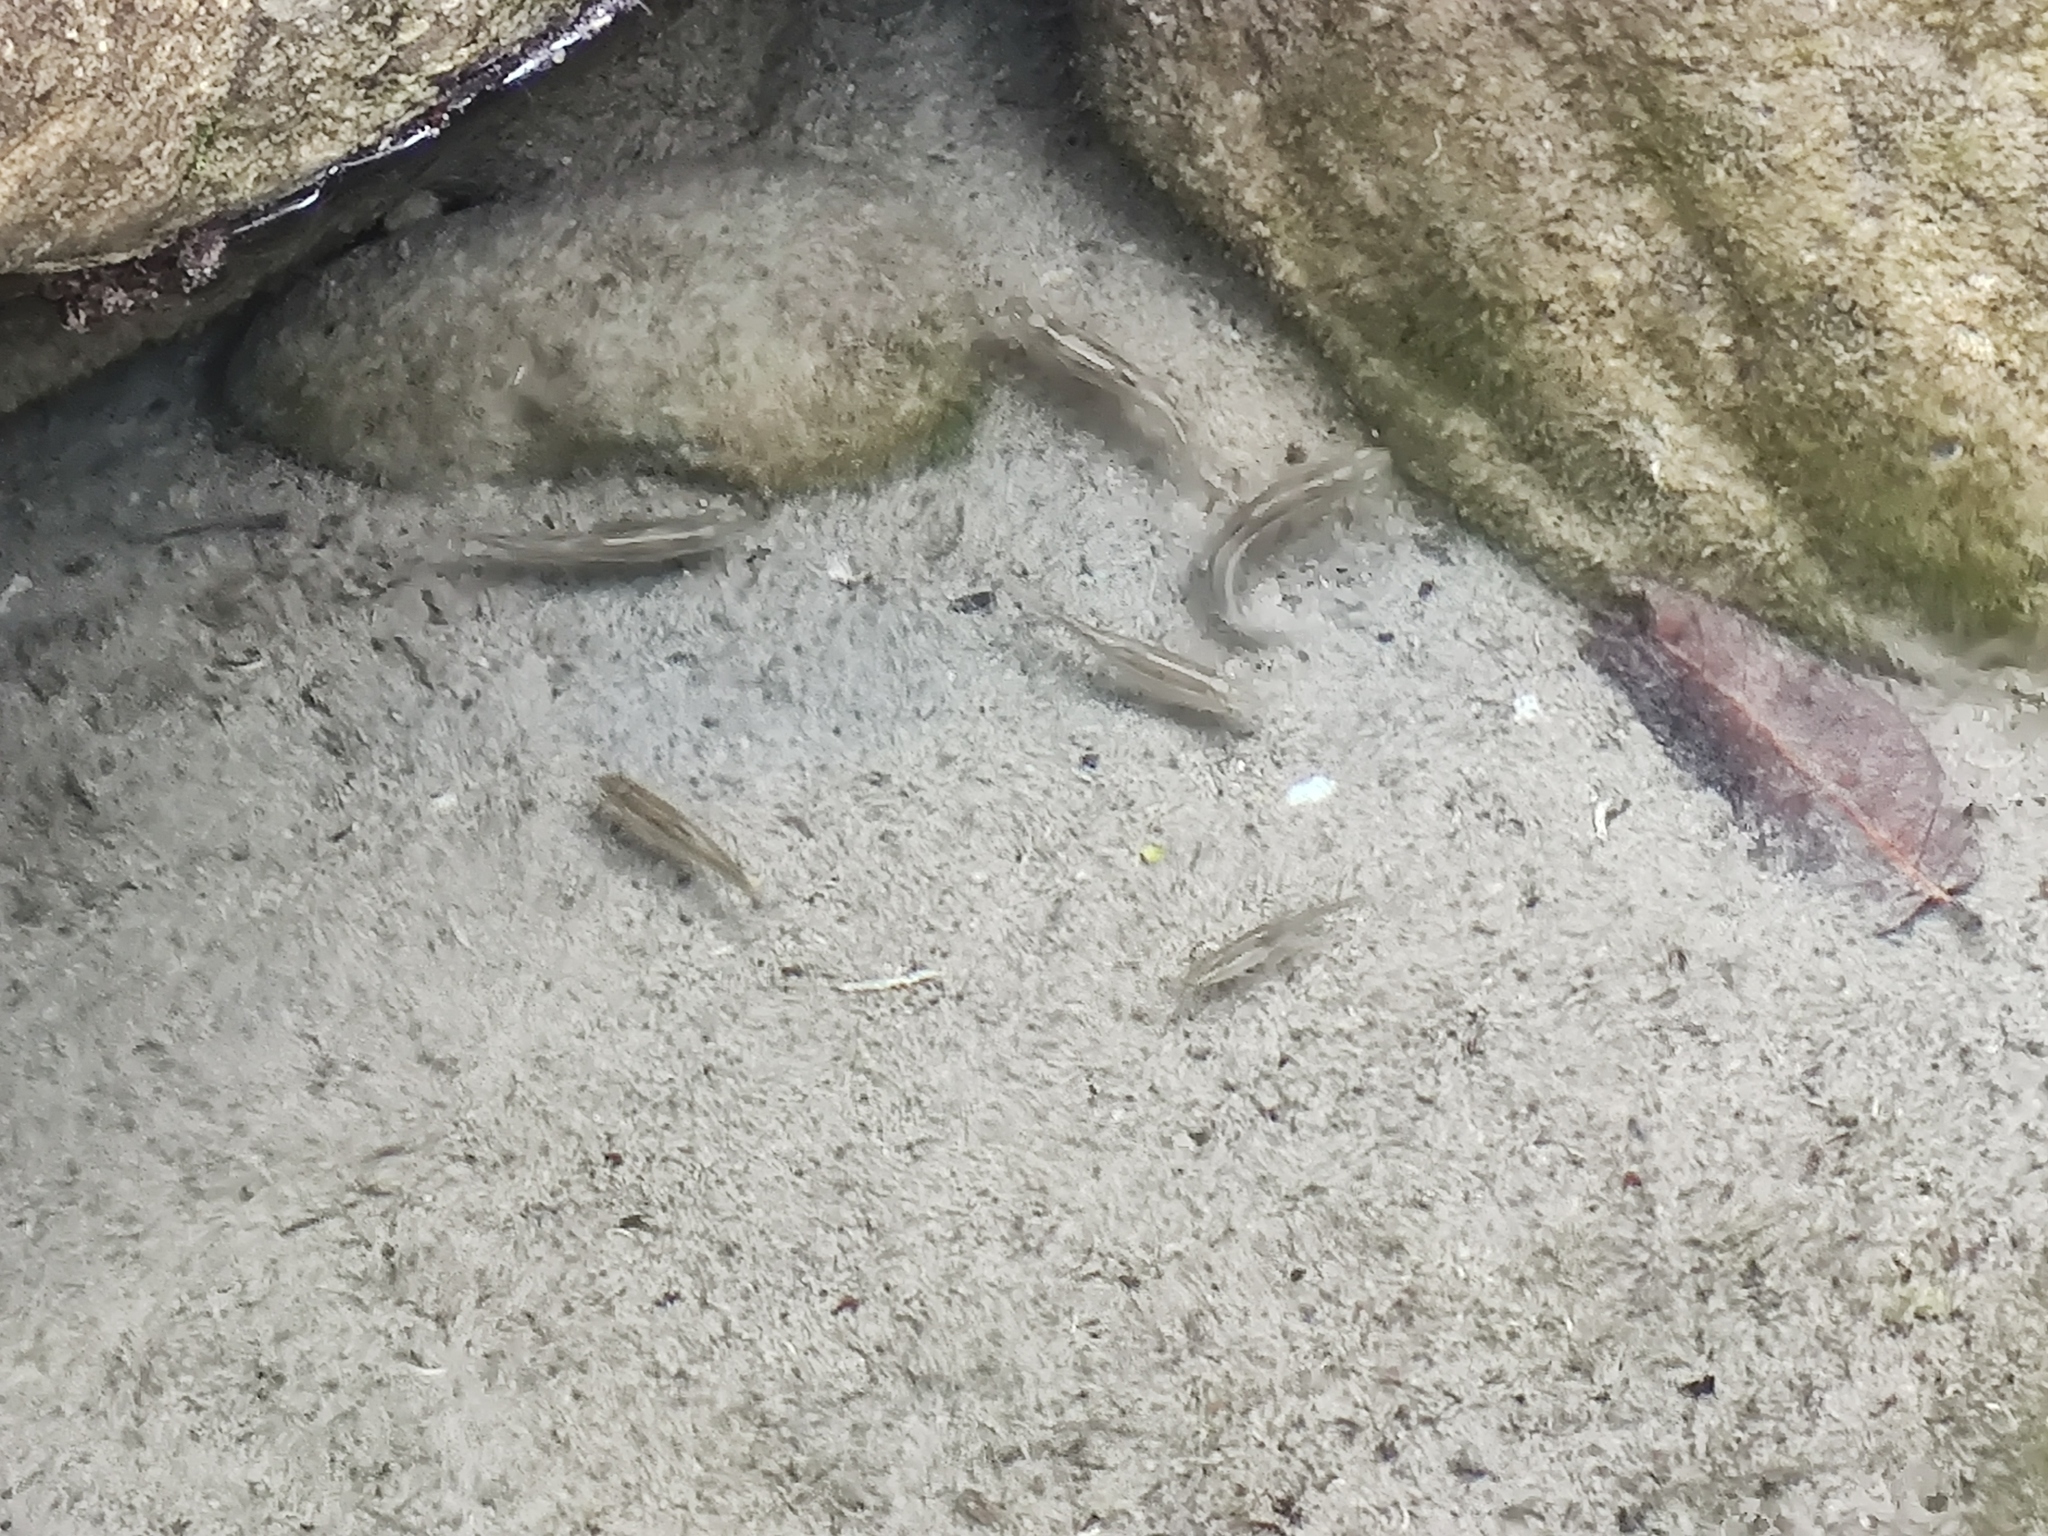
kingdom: Animalia
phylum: Chordata
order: Cypriniformes
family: Cyprinidae
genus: Dionda
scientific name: Dionda melanops
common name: Spotted minnow
